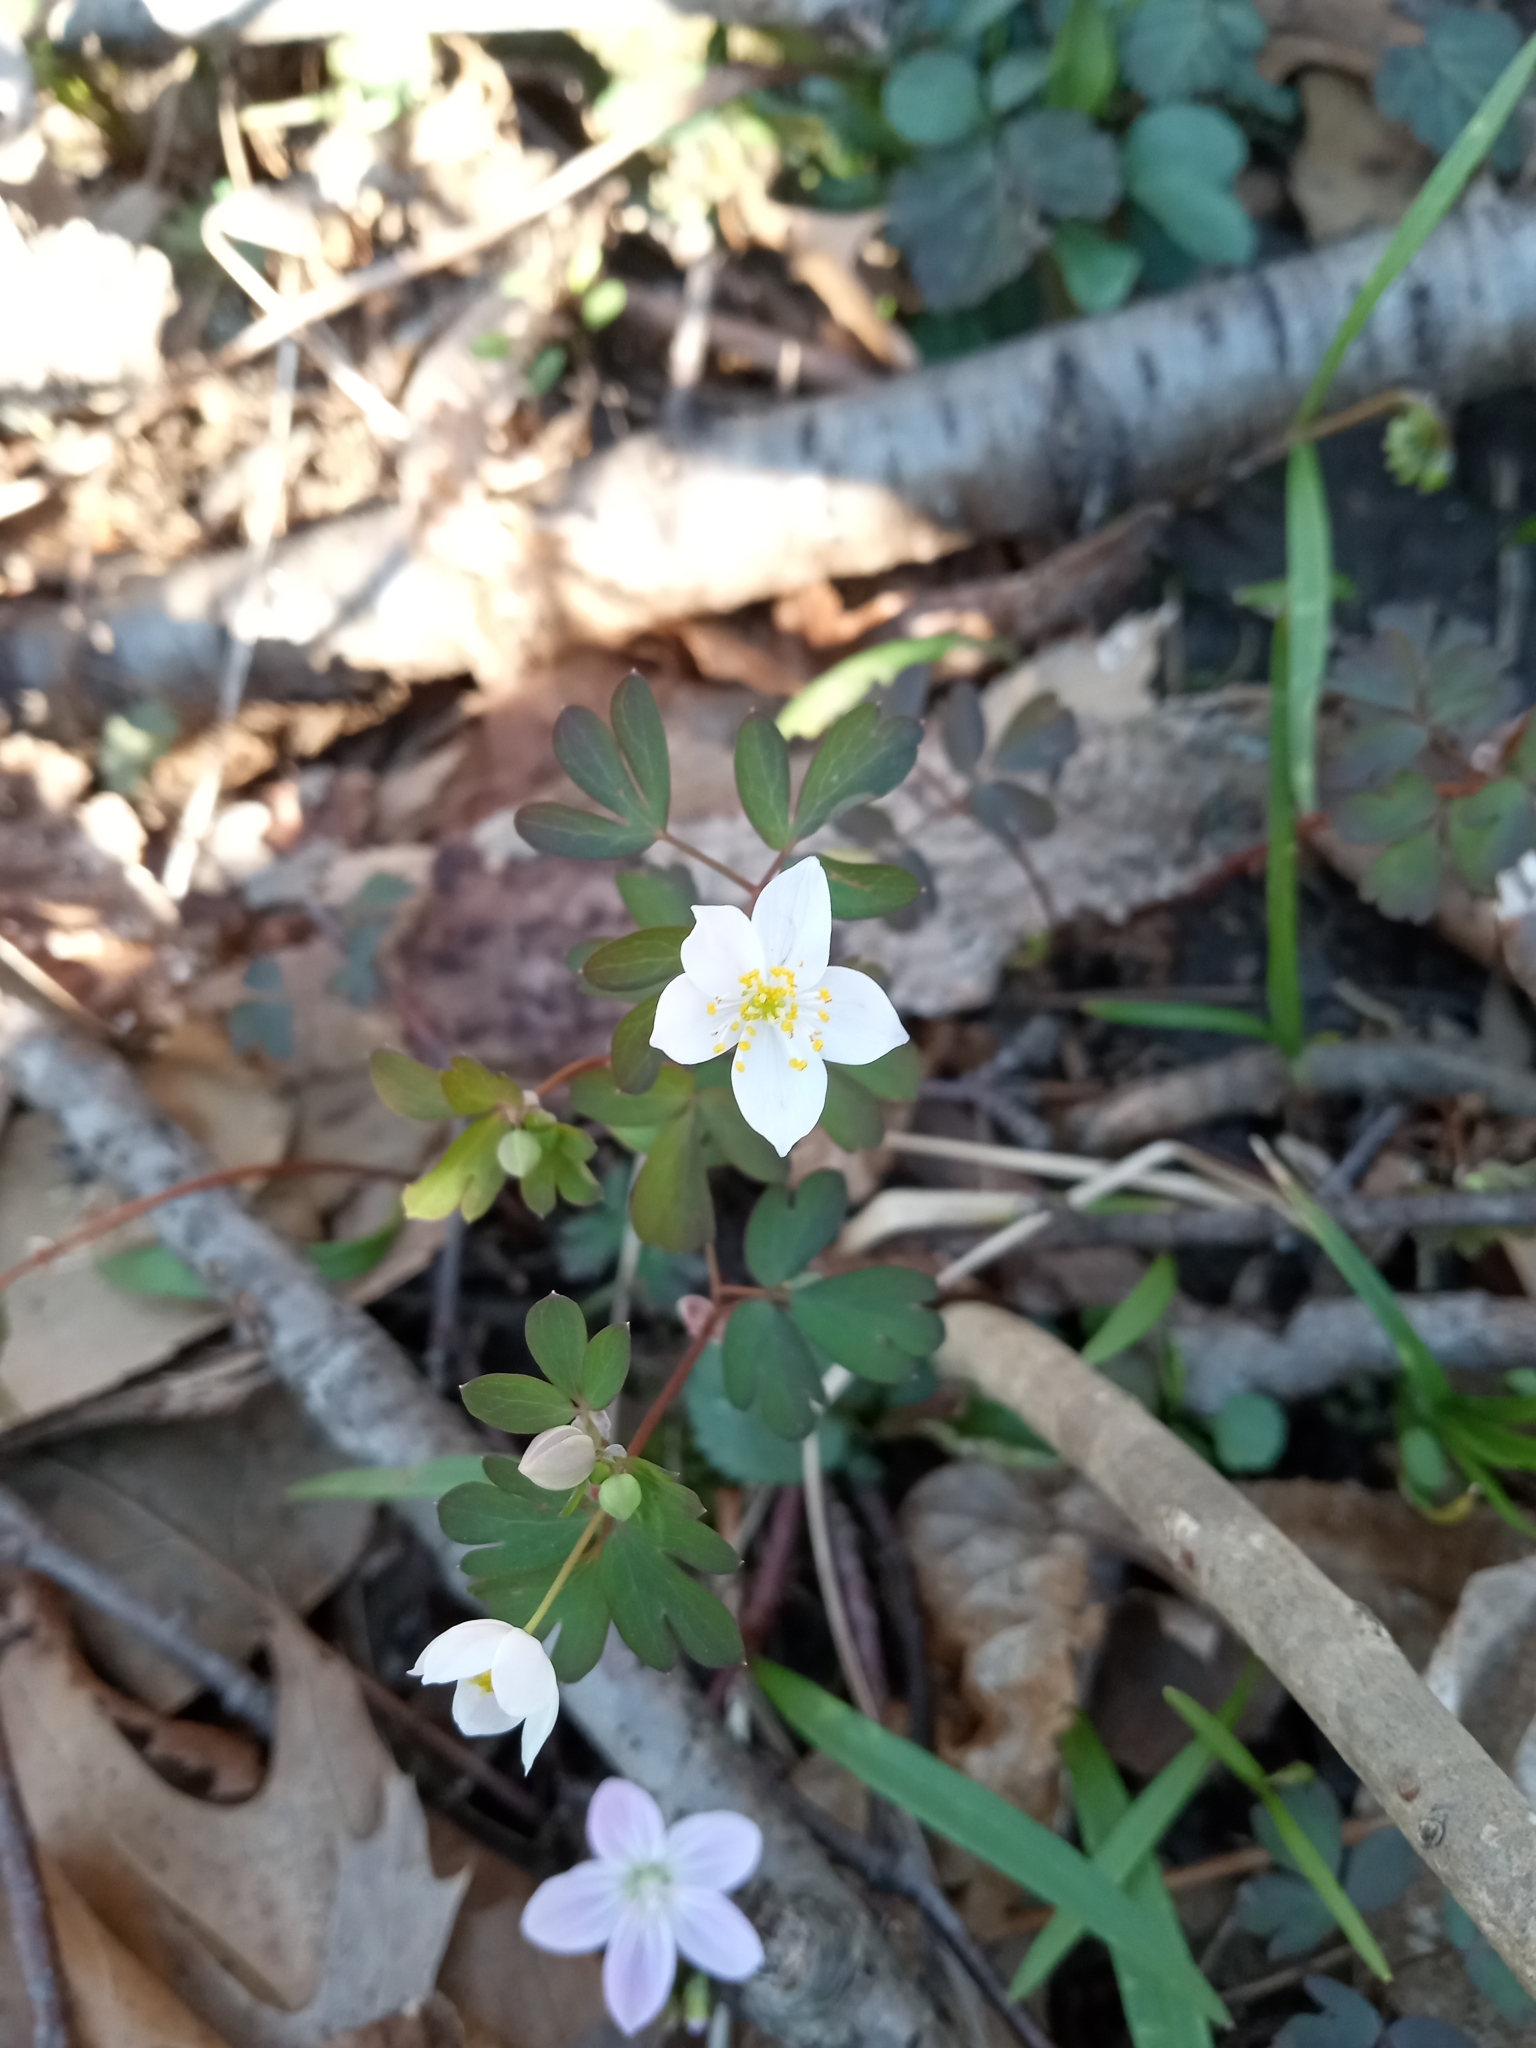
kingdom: Plantae
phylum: Tracheophyta
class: Magnoliopsida
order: Ranunculales
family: Ranunculaceae
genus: Enemion
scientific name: Enemion biternatum
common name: Eastern false rue-anemone
